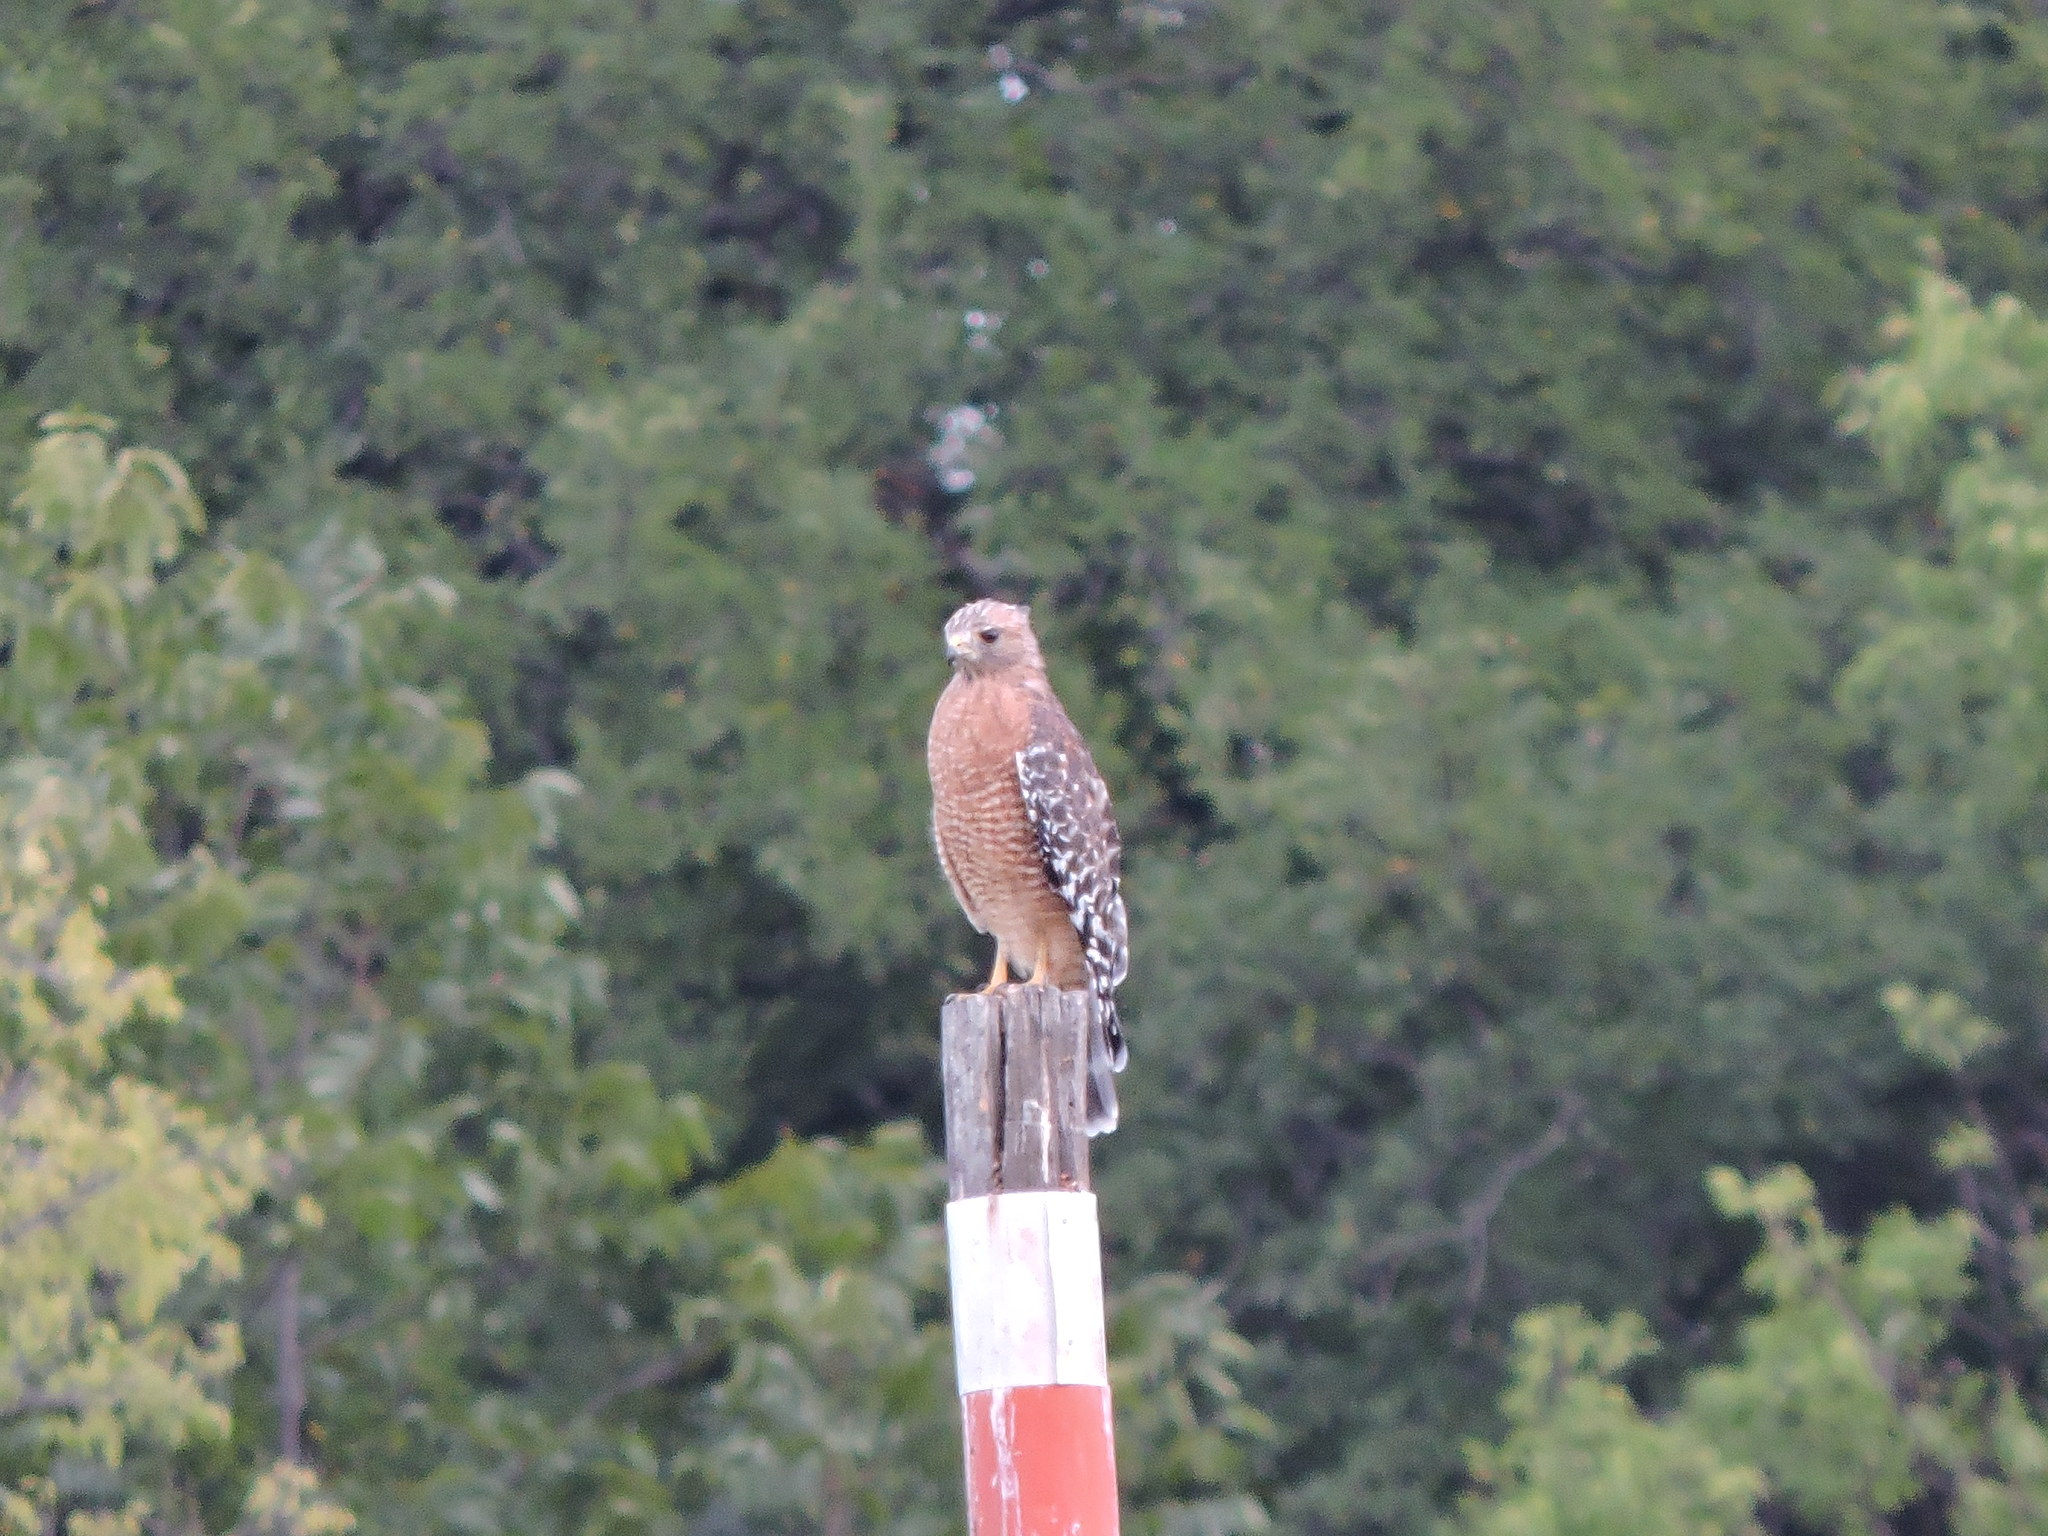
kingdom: Animalia
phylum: Chordata
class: Aves
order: Accipitriformes
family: Accipitridae
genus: Buteo
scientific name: Buteo lineatus
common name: Red-shouldered hawk
